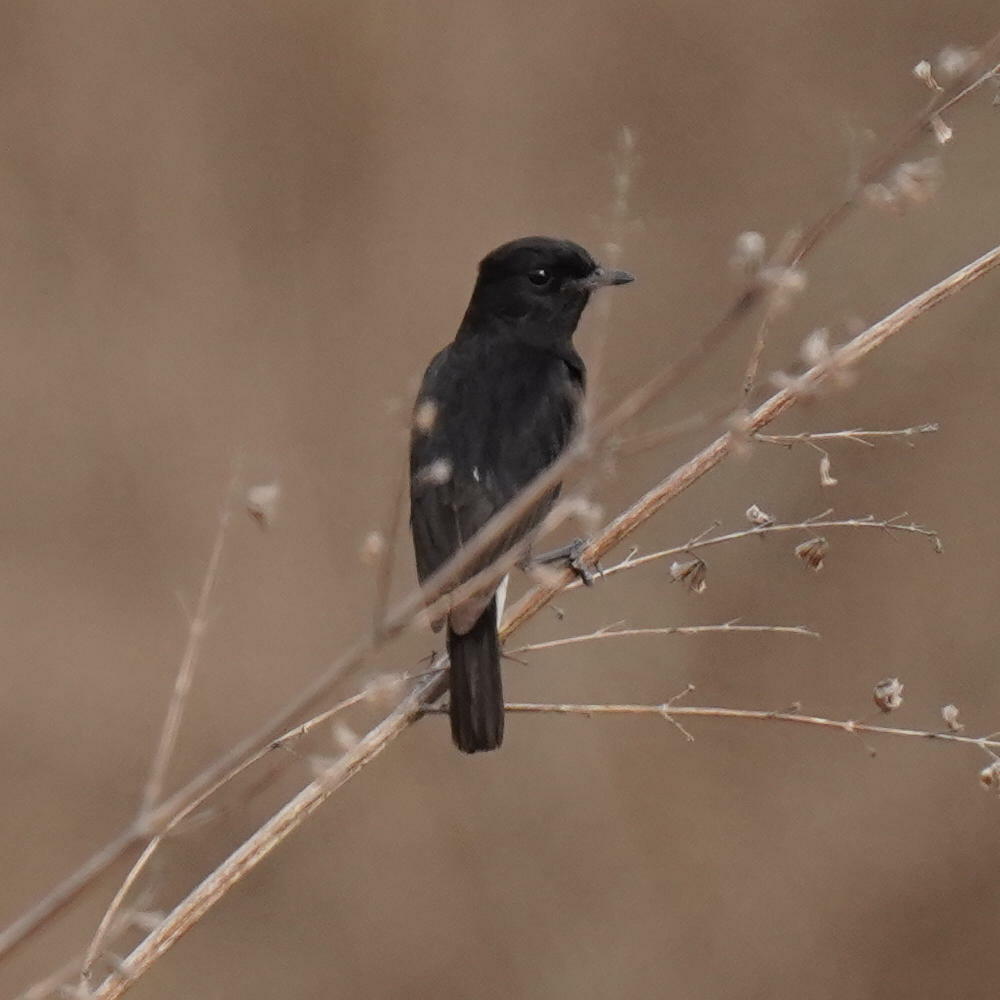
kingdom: Animalia
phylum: Chordata
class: Aves
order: Passeriformes
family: Muscicapidae
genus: Saxicola
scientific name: Saxicola caprata
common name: Pied bush chat
